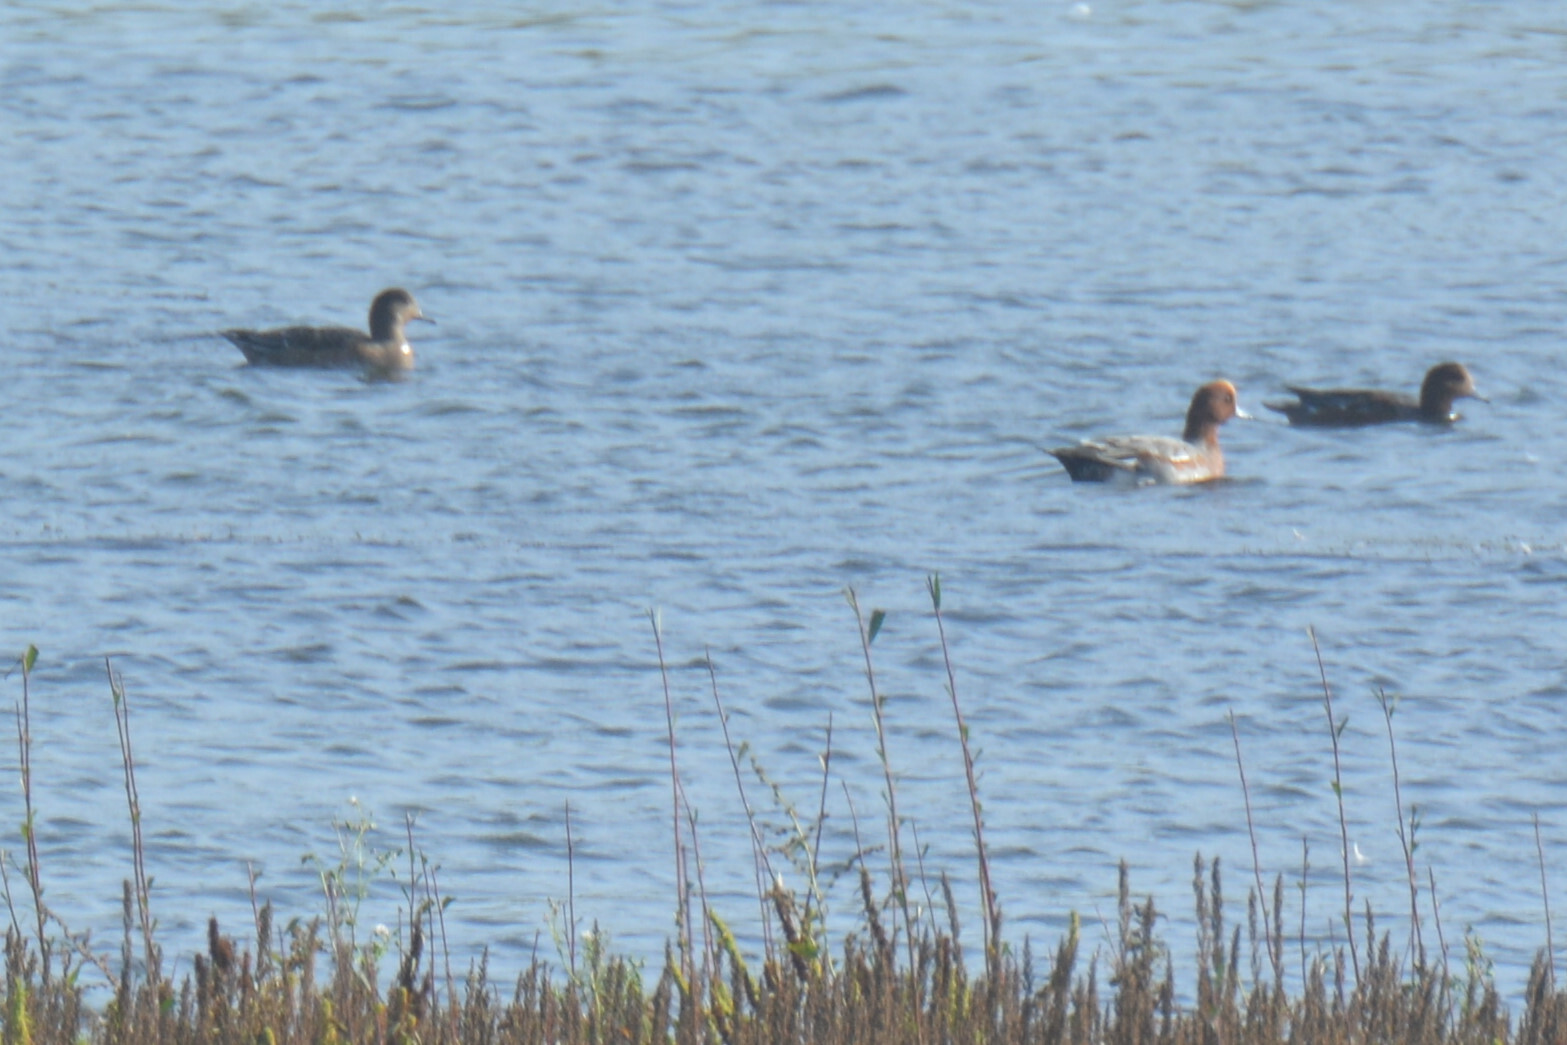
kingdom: Animalia
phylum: Chordata
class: Aves
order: Anseriformes
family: Anatidae
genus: Mareca
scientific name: Mareca penelope
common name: Eurasian wigeon
